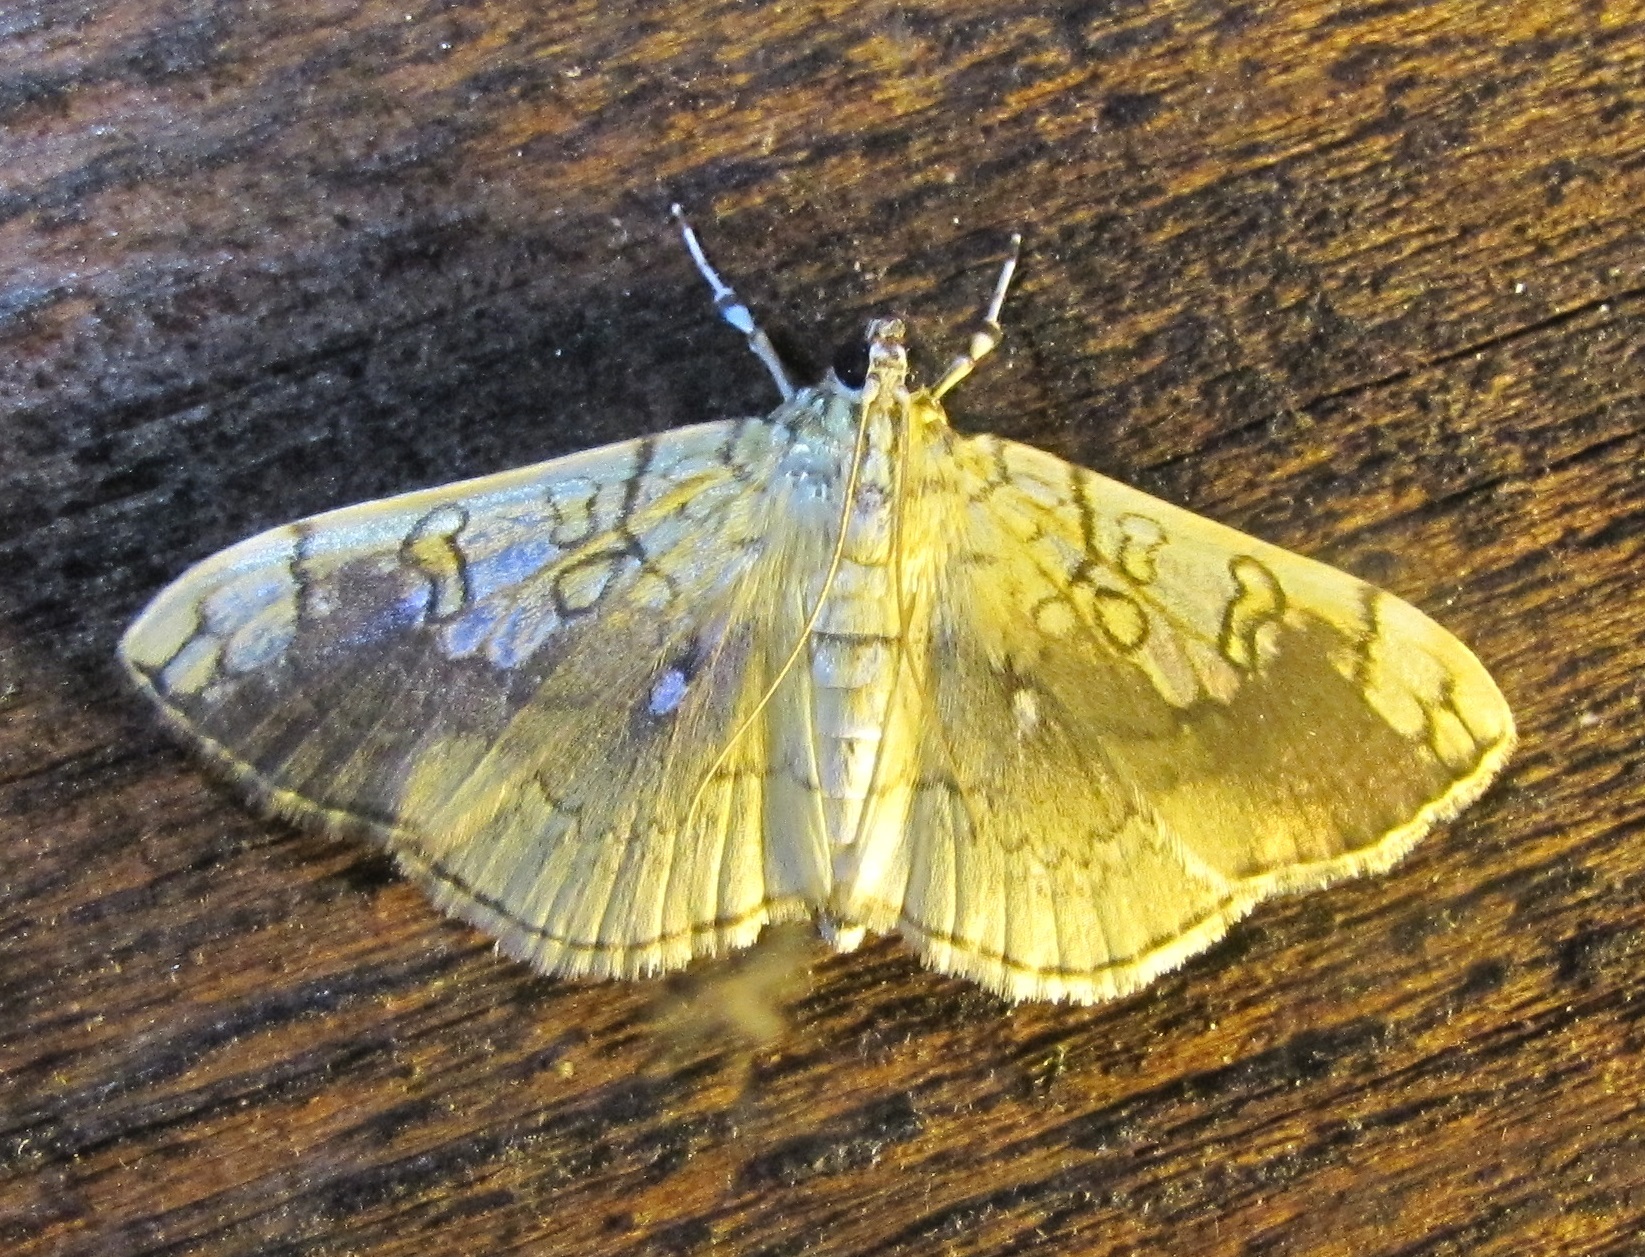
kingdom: Animalia
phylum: Arthropoda
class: Insecta
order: Lepidoptera
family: Crambidae
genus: Pantographa
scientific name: Pantographa limata
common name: Basswood leafroller moth
